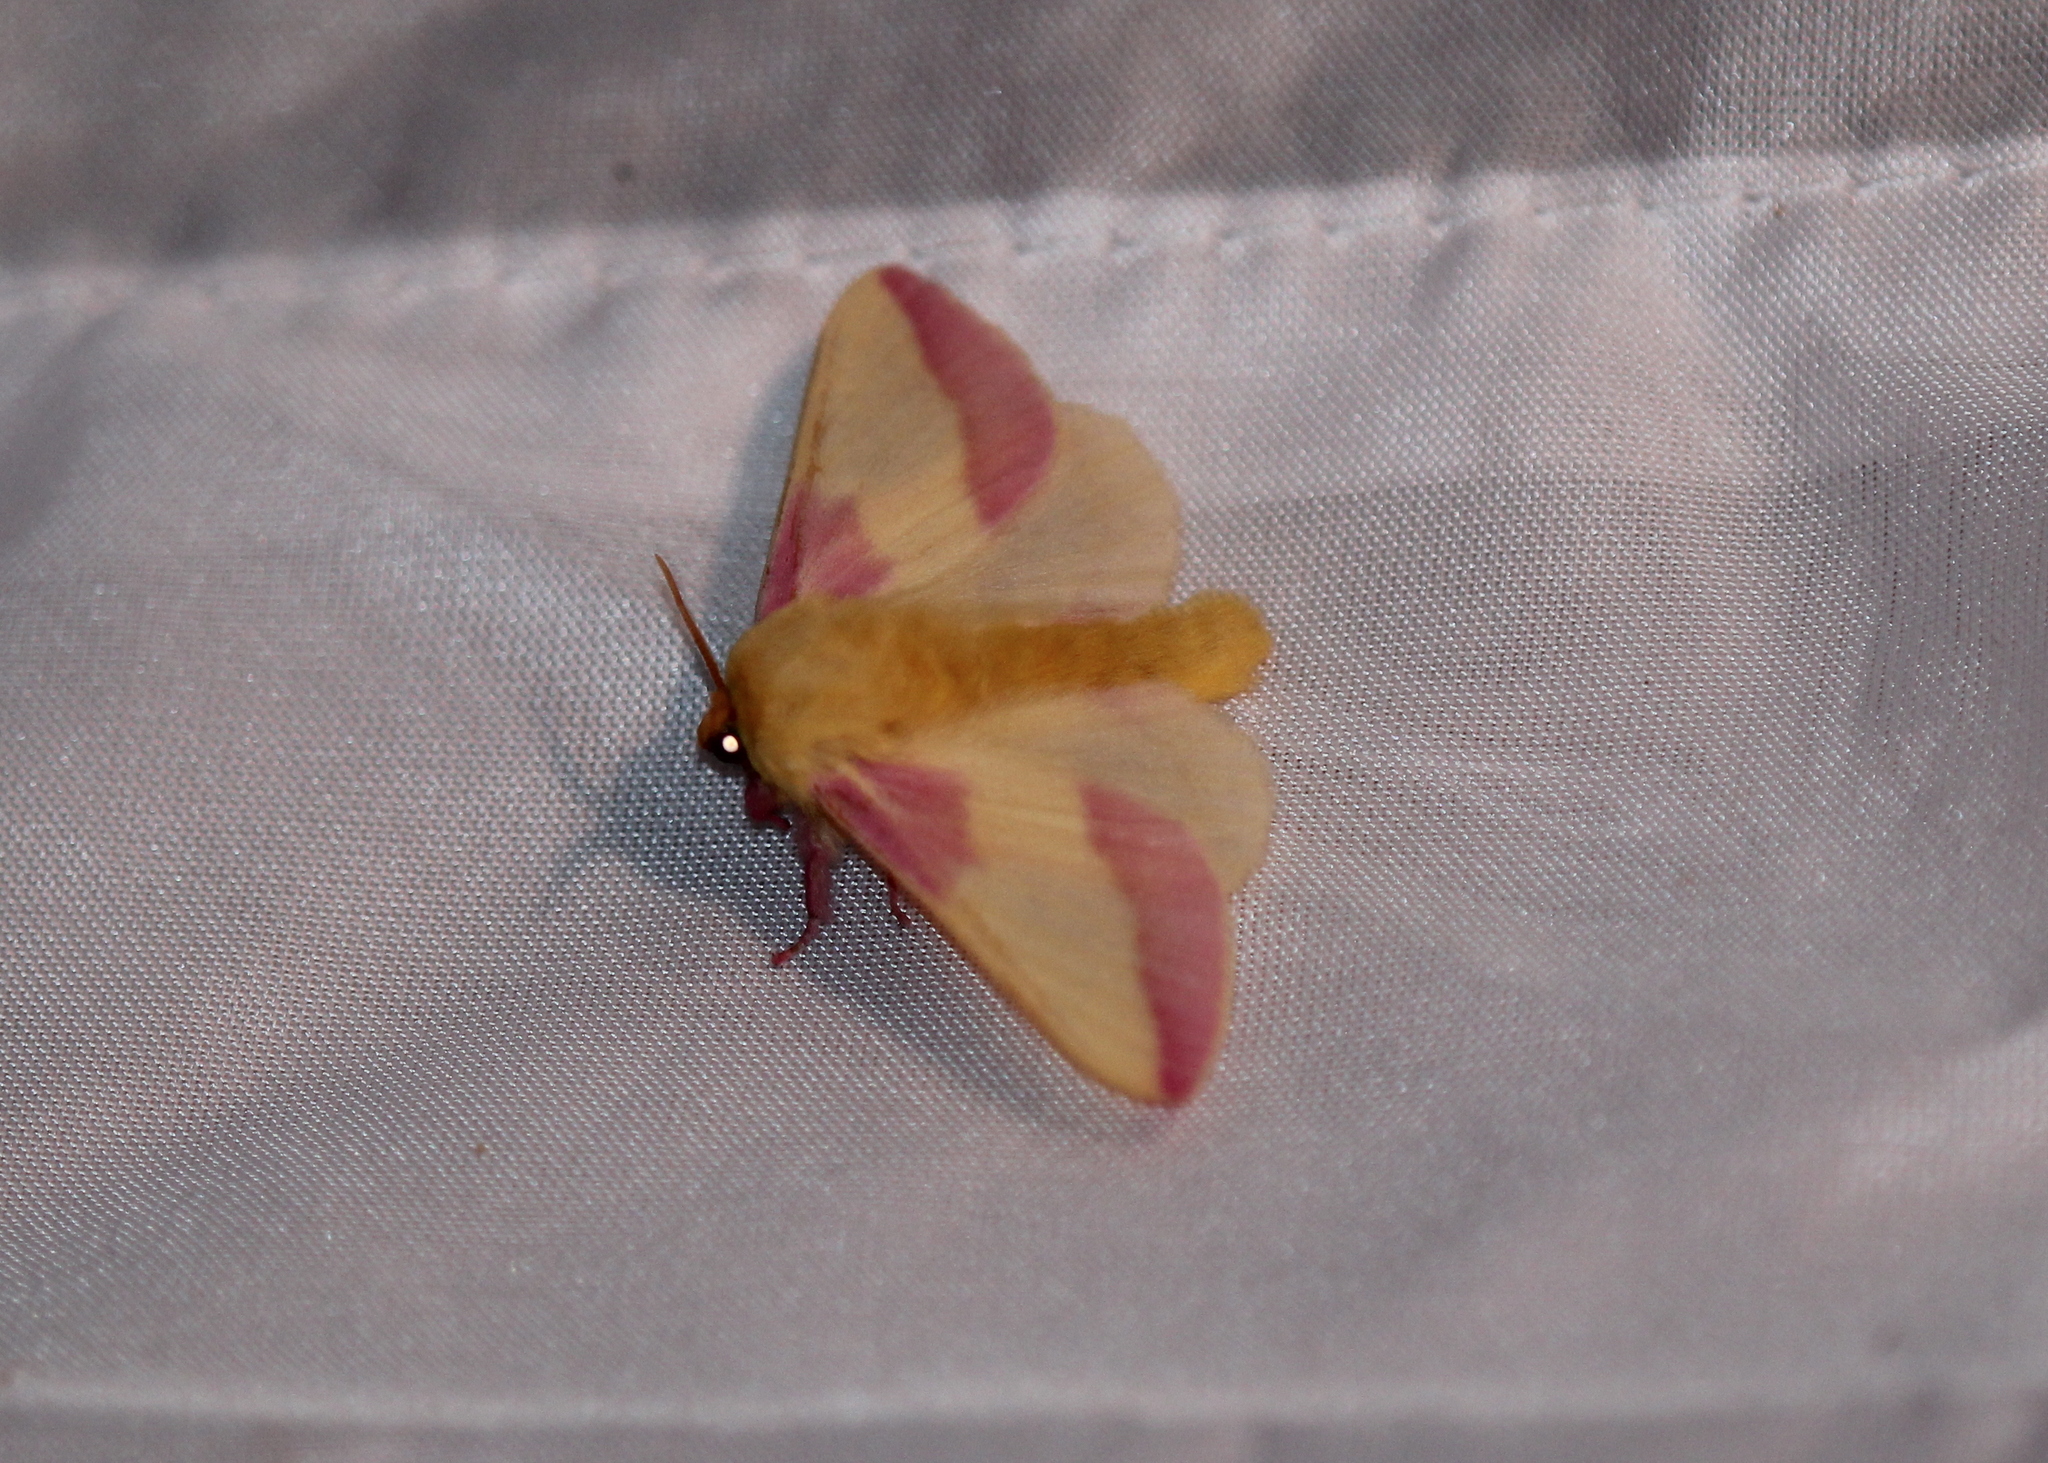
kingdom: Animalia
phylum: Arthropoda
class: Insecta
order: Lepidoptera
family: Saturniidae
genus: Dryocampa
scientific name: Dryocampa rubicunda
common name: Rosy maple moth
